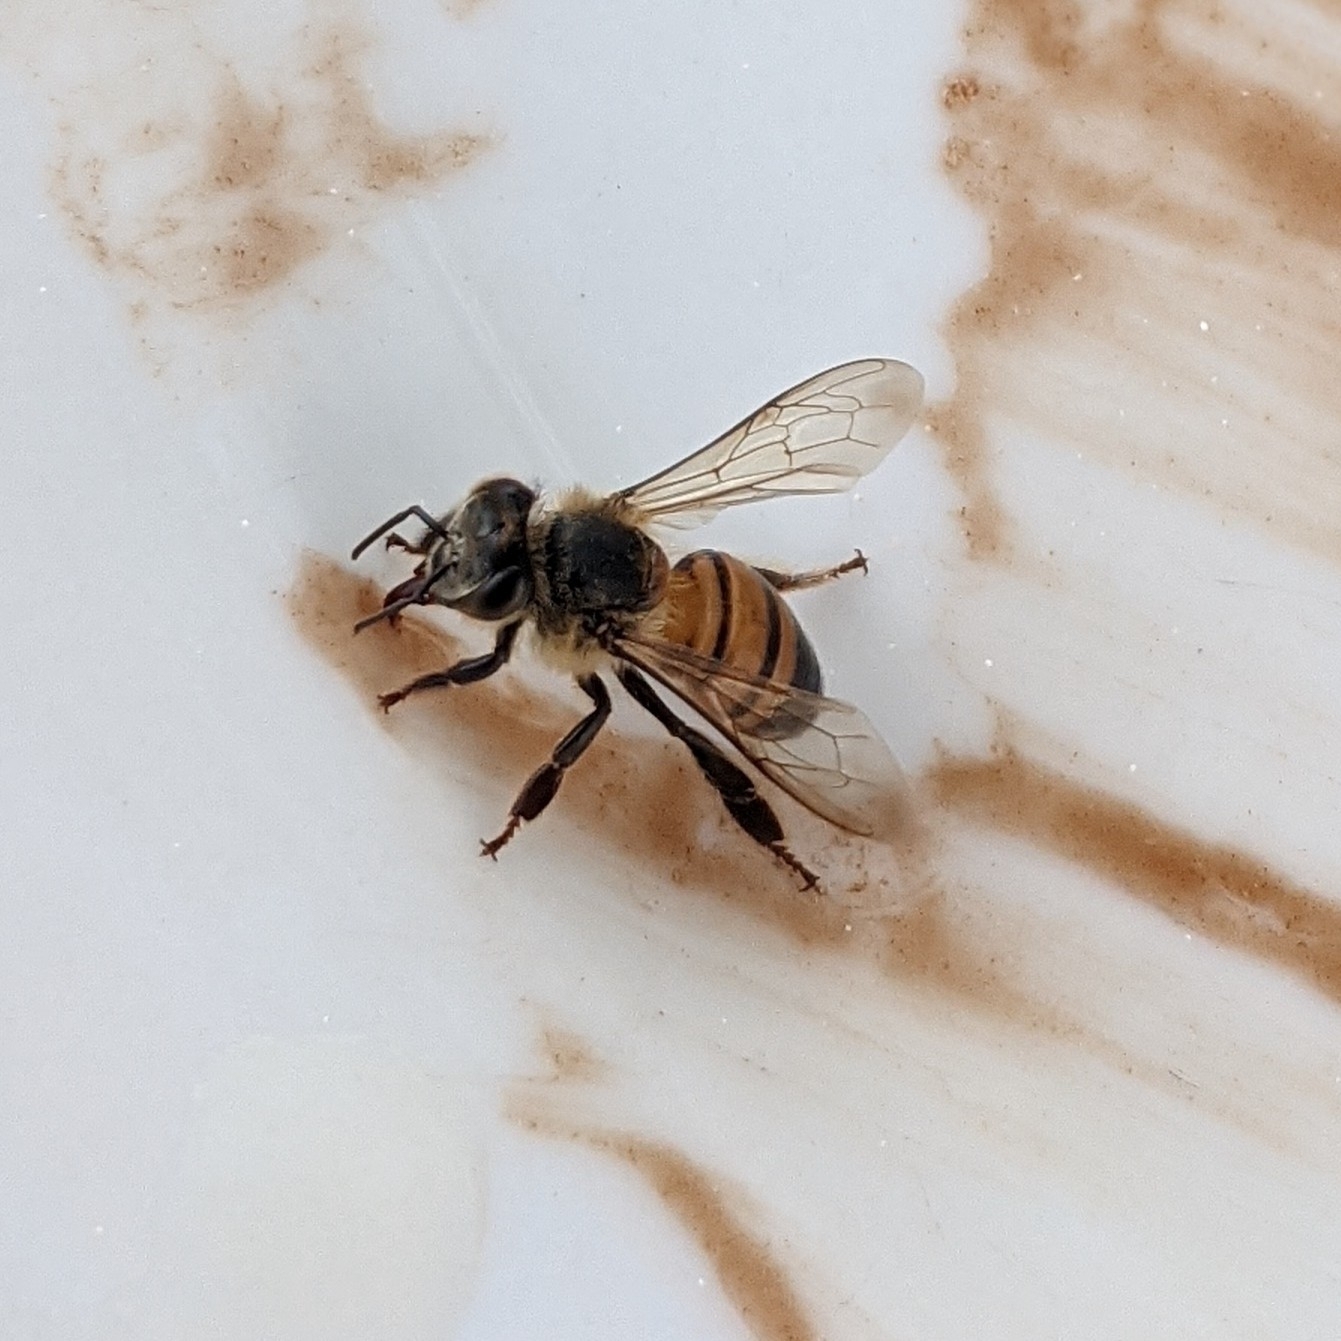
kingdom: Animalia
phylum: Arthropoda
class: Insecta
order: Hymenoptera
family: Apidae
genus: Apis
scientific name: Apis mellifera
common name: Honey bee
